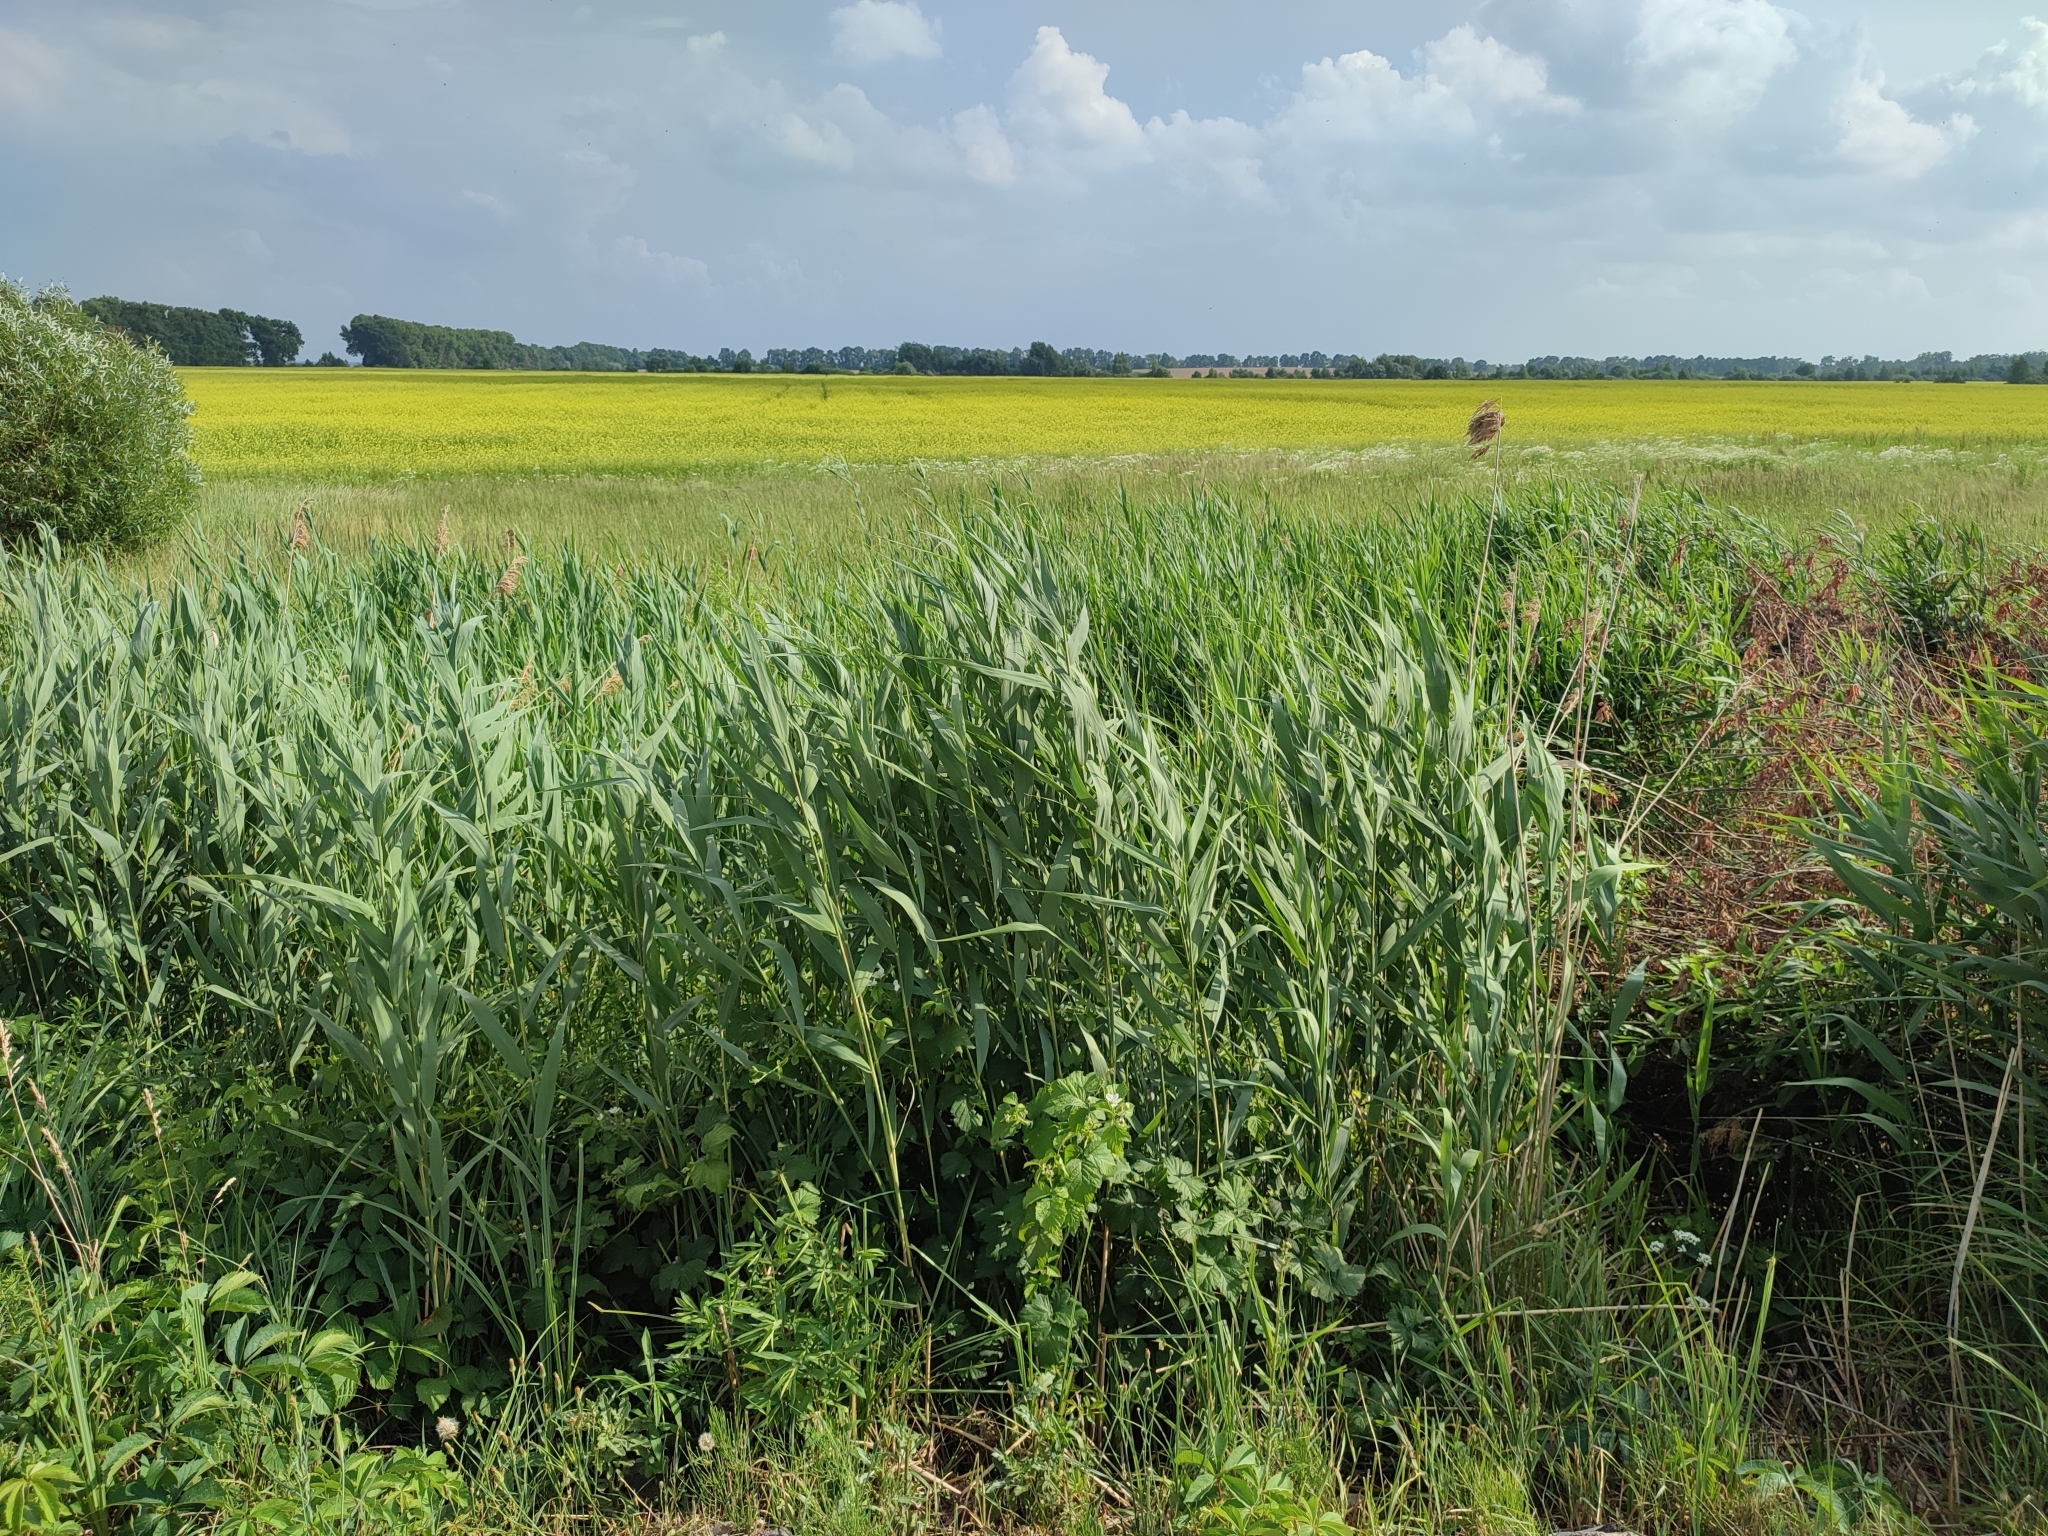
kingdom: Plantae
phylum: Tracheophyta
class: Liliopsida
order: Poales
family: Poaceae
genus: Phragmites
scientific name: Phragmites australis
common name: Common reed
